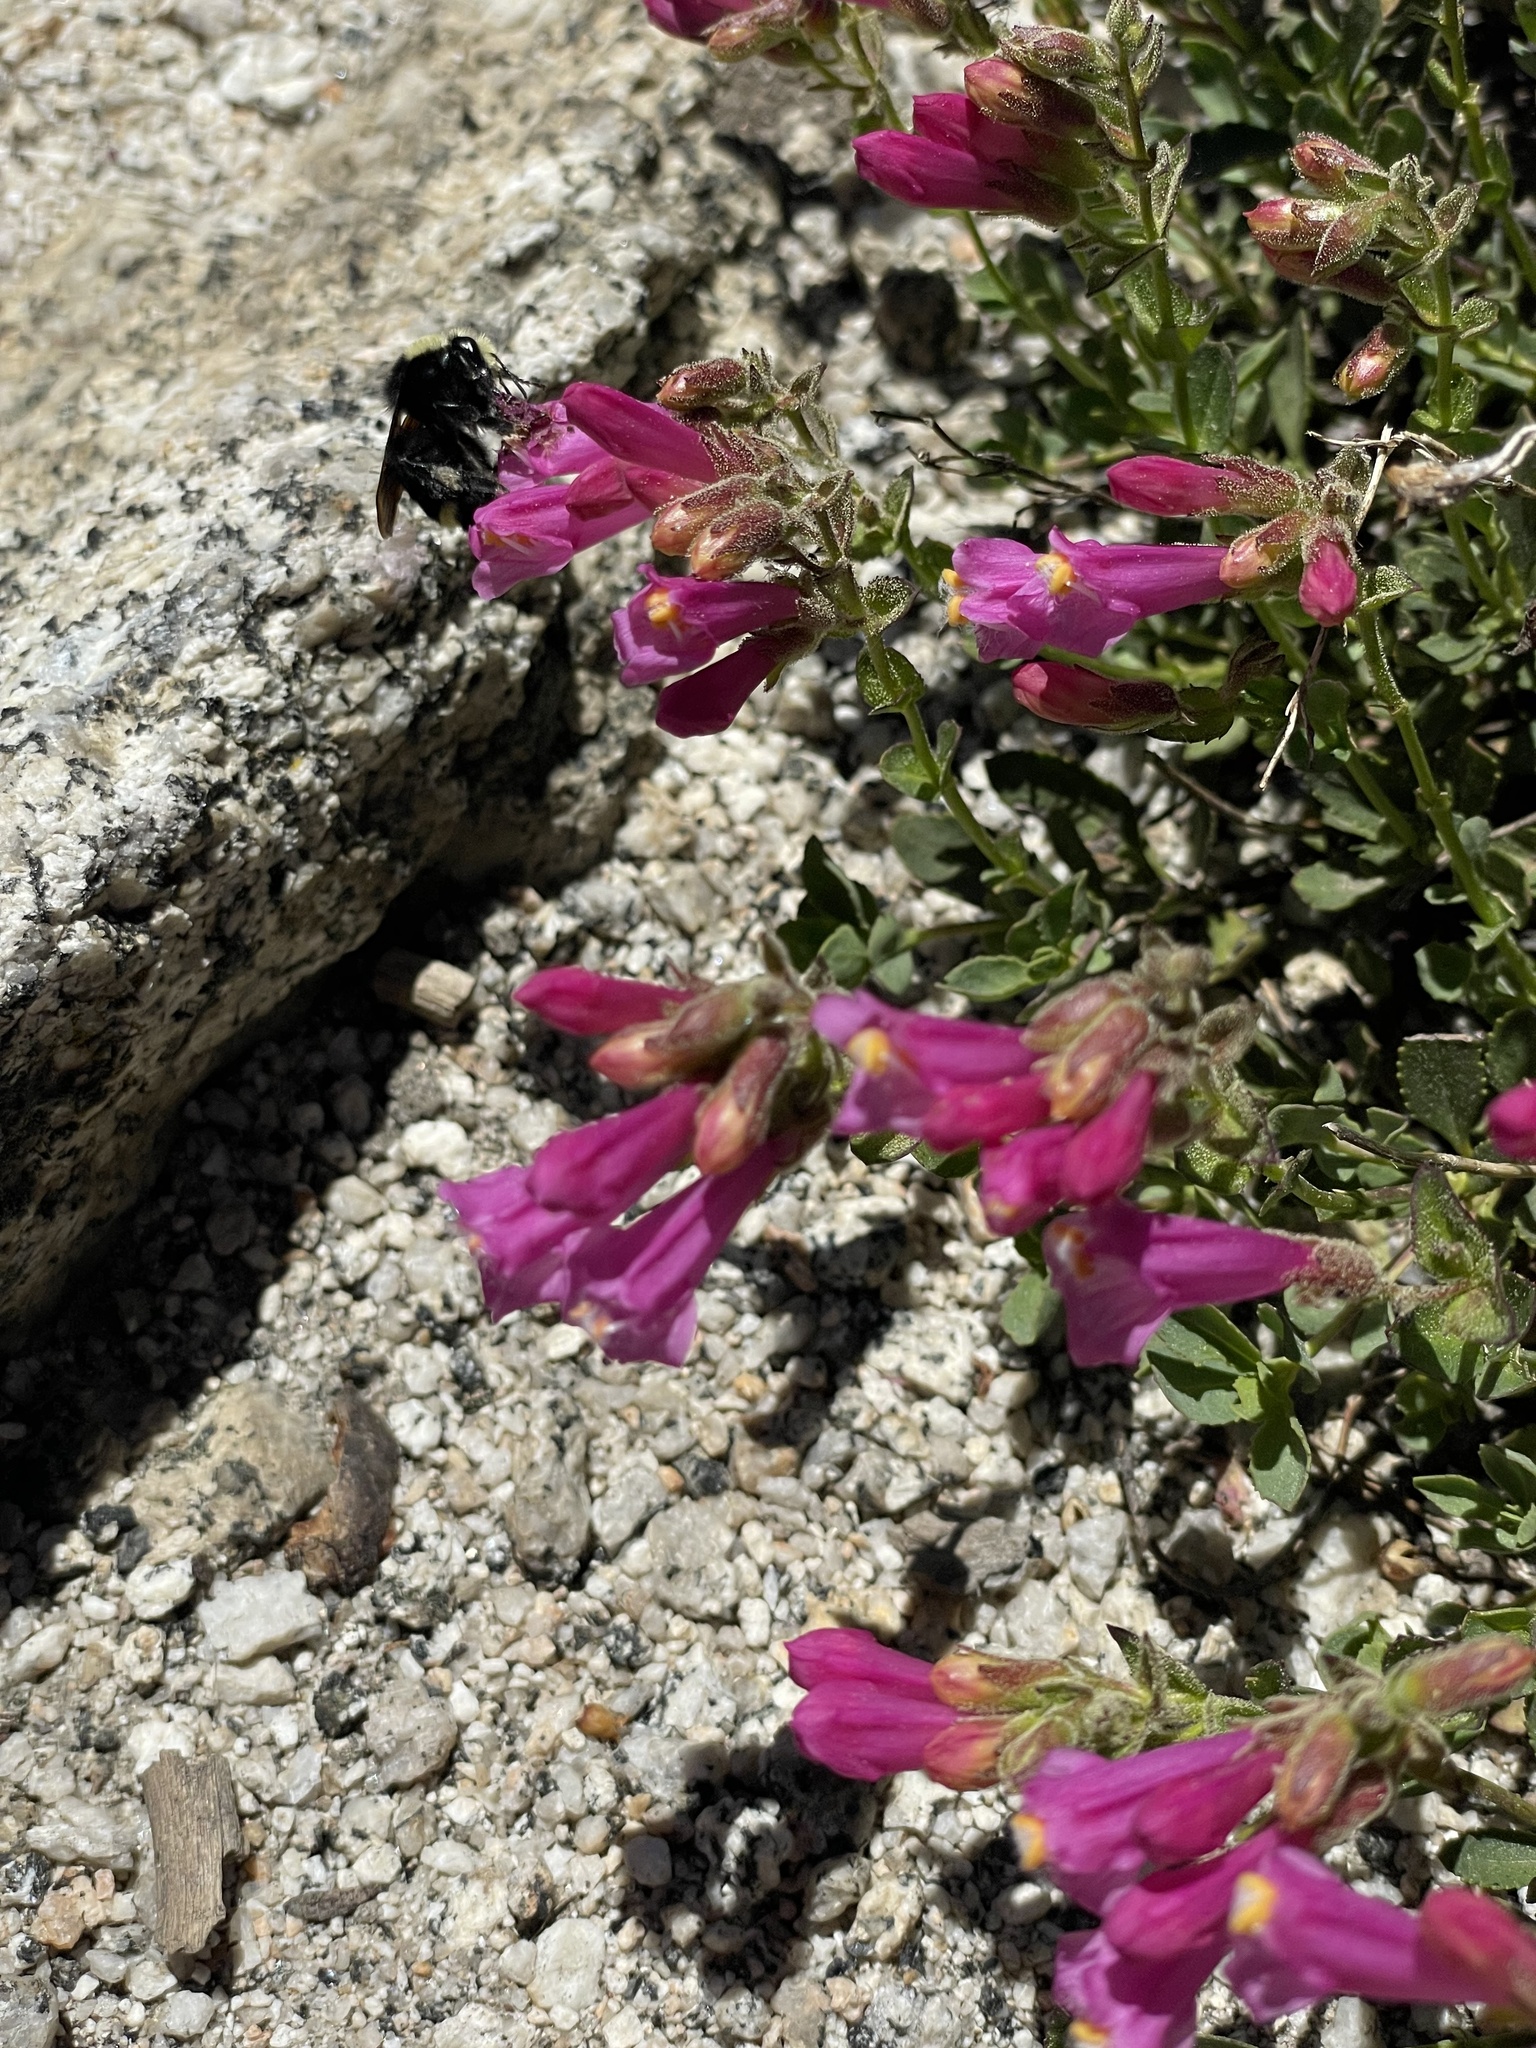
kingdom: Plantae
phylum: Tracheophyta
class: Magnoliopsida
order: Lamiales
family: Plantaginaceae
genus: Penstemon
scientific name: Penstemon newberryi
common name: Mountain-pride
